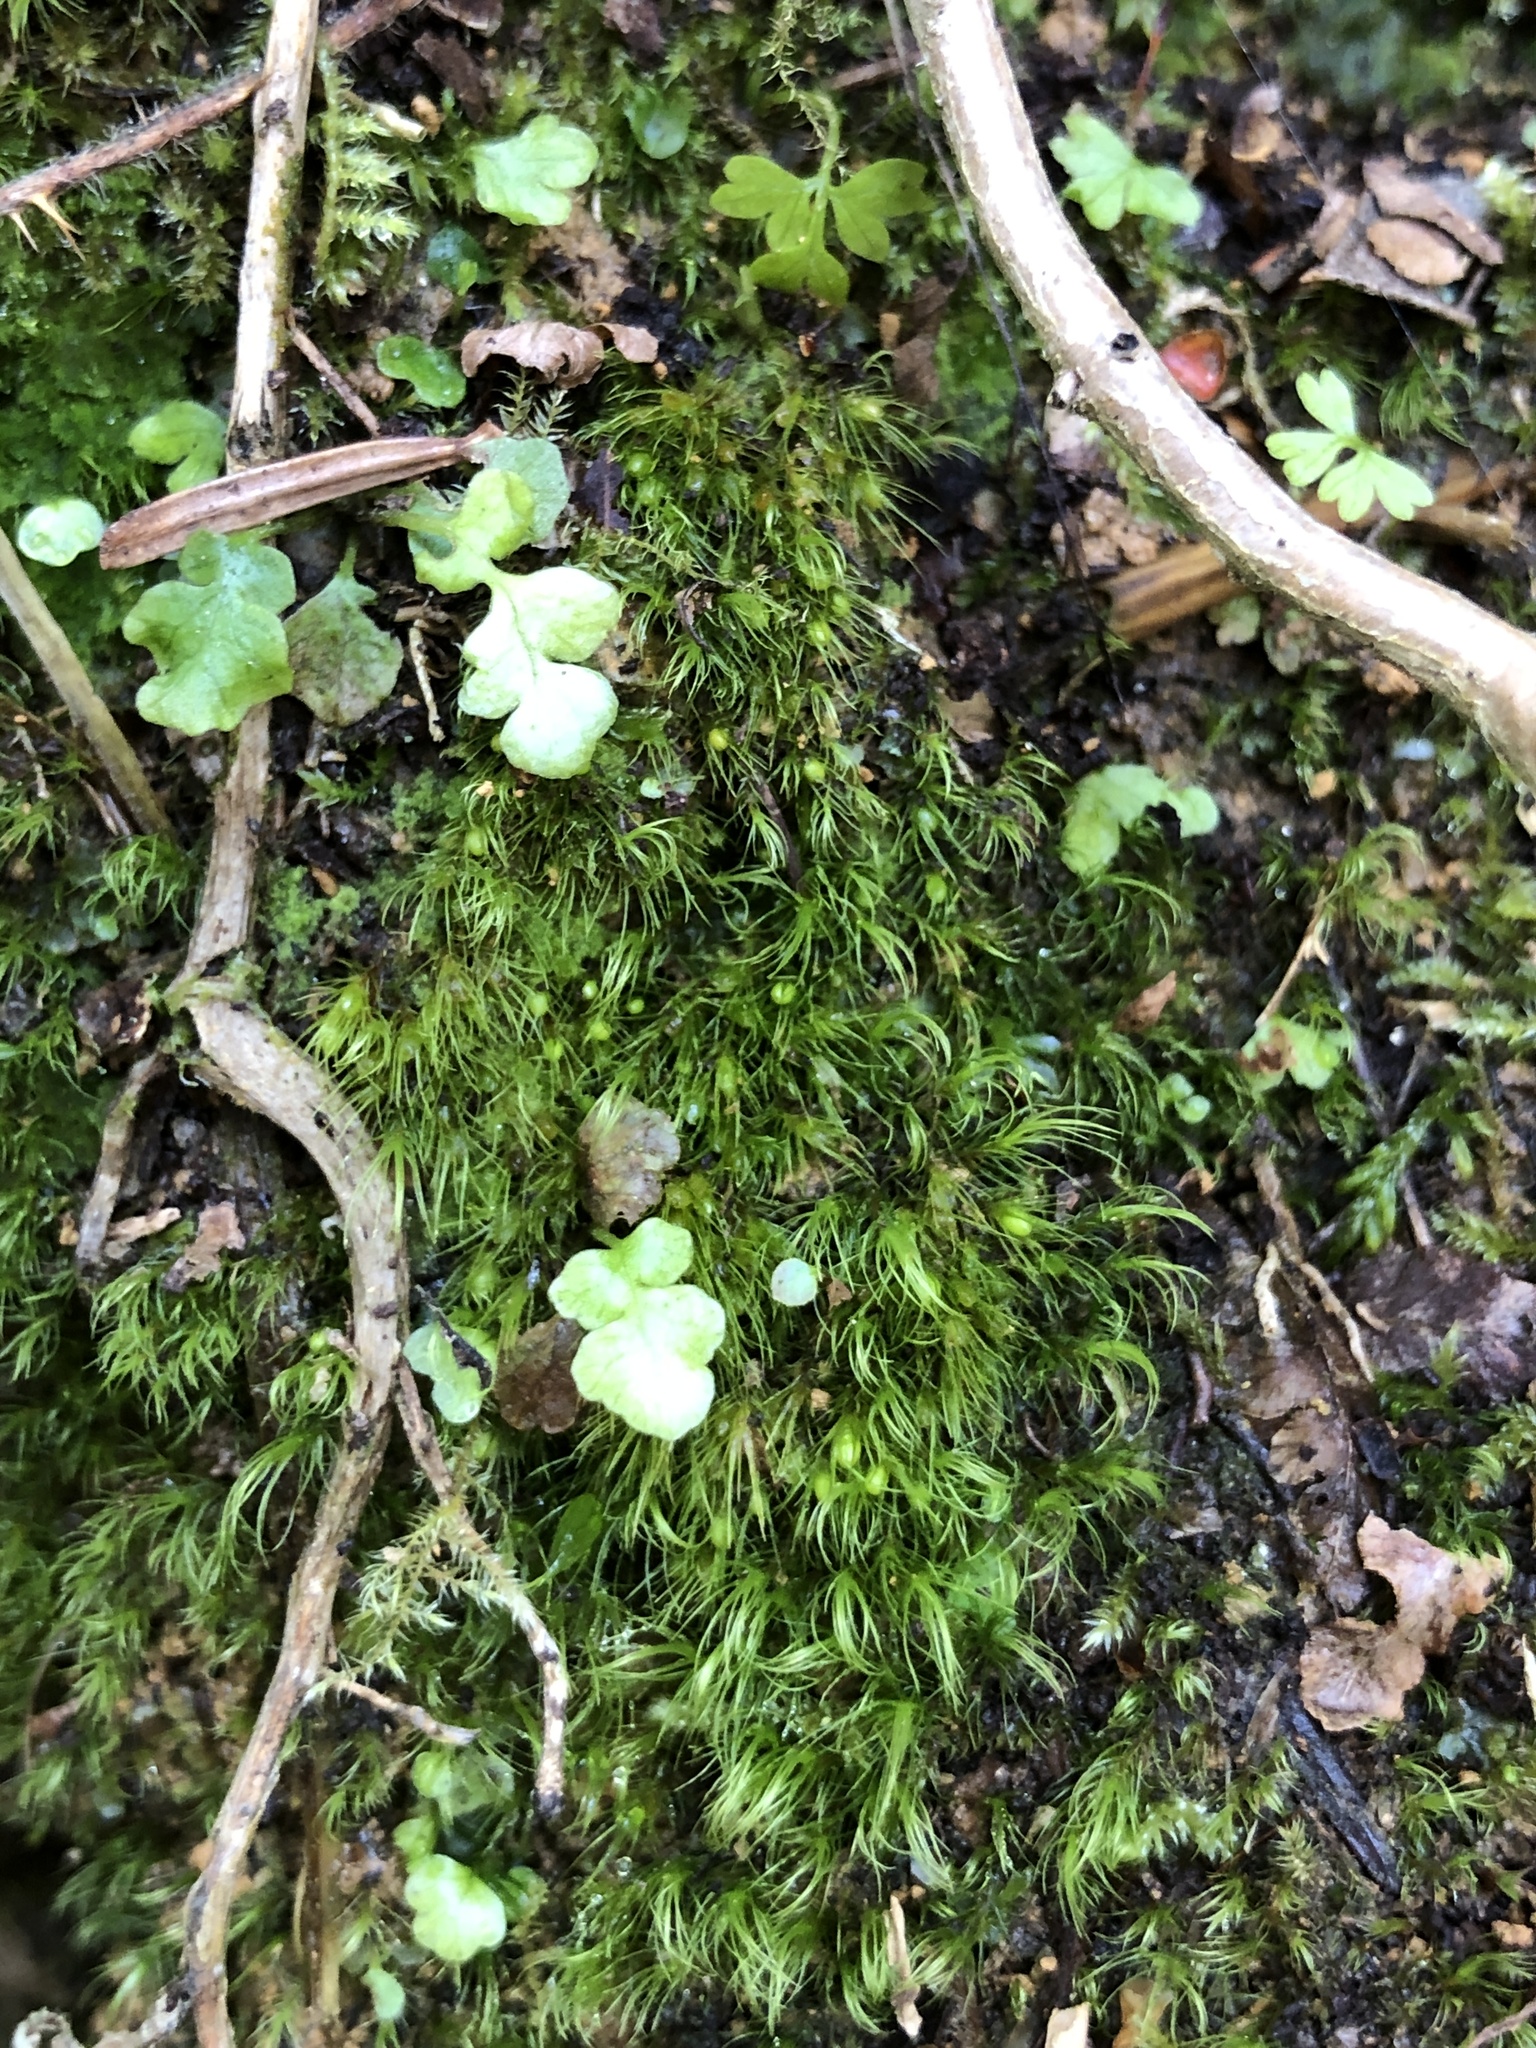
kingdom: Plantae
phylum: Bryophyta
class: Bryopsida
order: Dicranales
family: Ditrichaceae
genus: Pleuridium
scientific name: Pleuridium acuminatum
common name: Taper-leaved earth-moss
